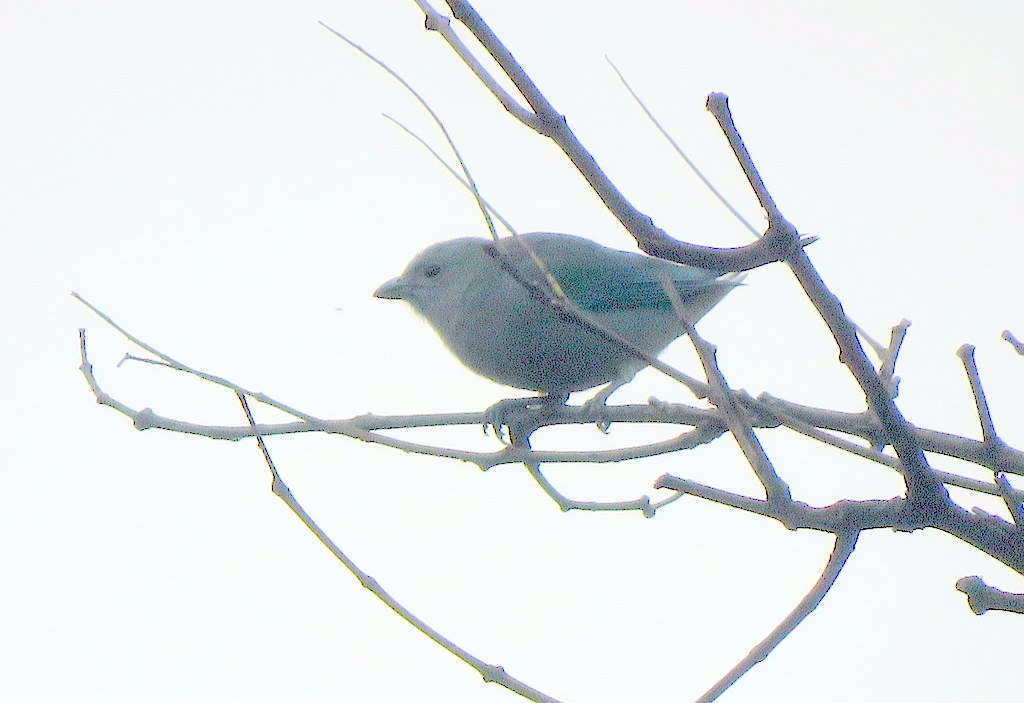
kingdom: Animalia
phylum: Chordata
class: Aves
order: Passeriformes
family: Thraupidae
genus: Thraupis
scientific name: Thraupis sayaca
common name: Sayaca tanager
